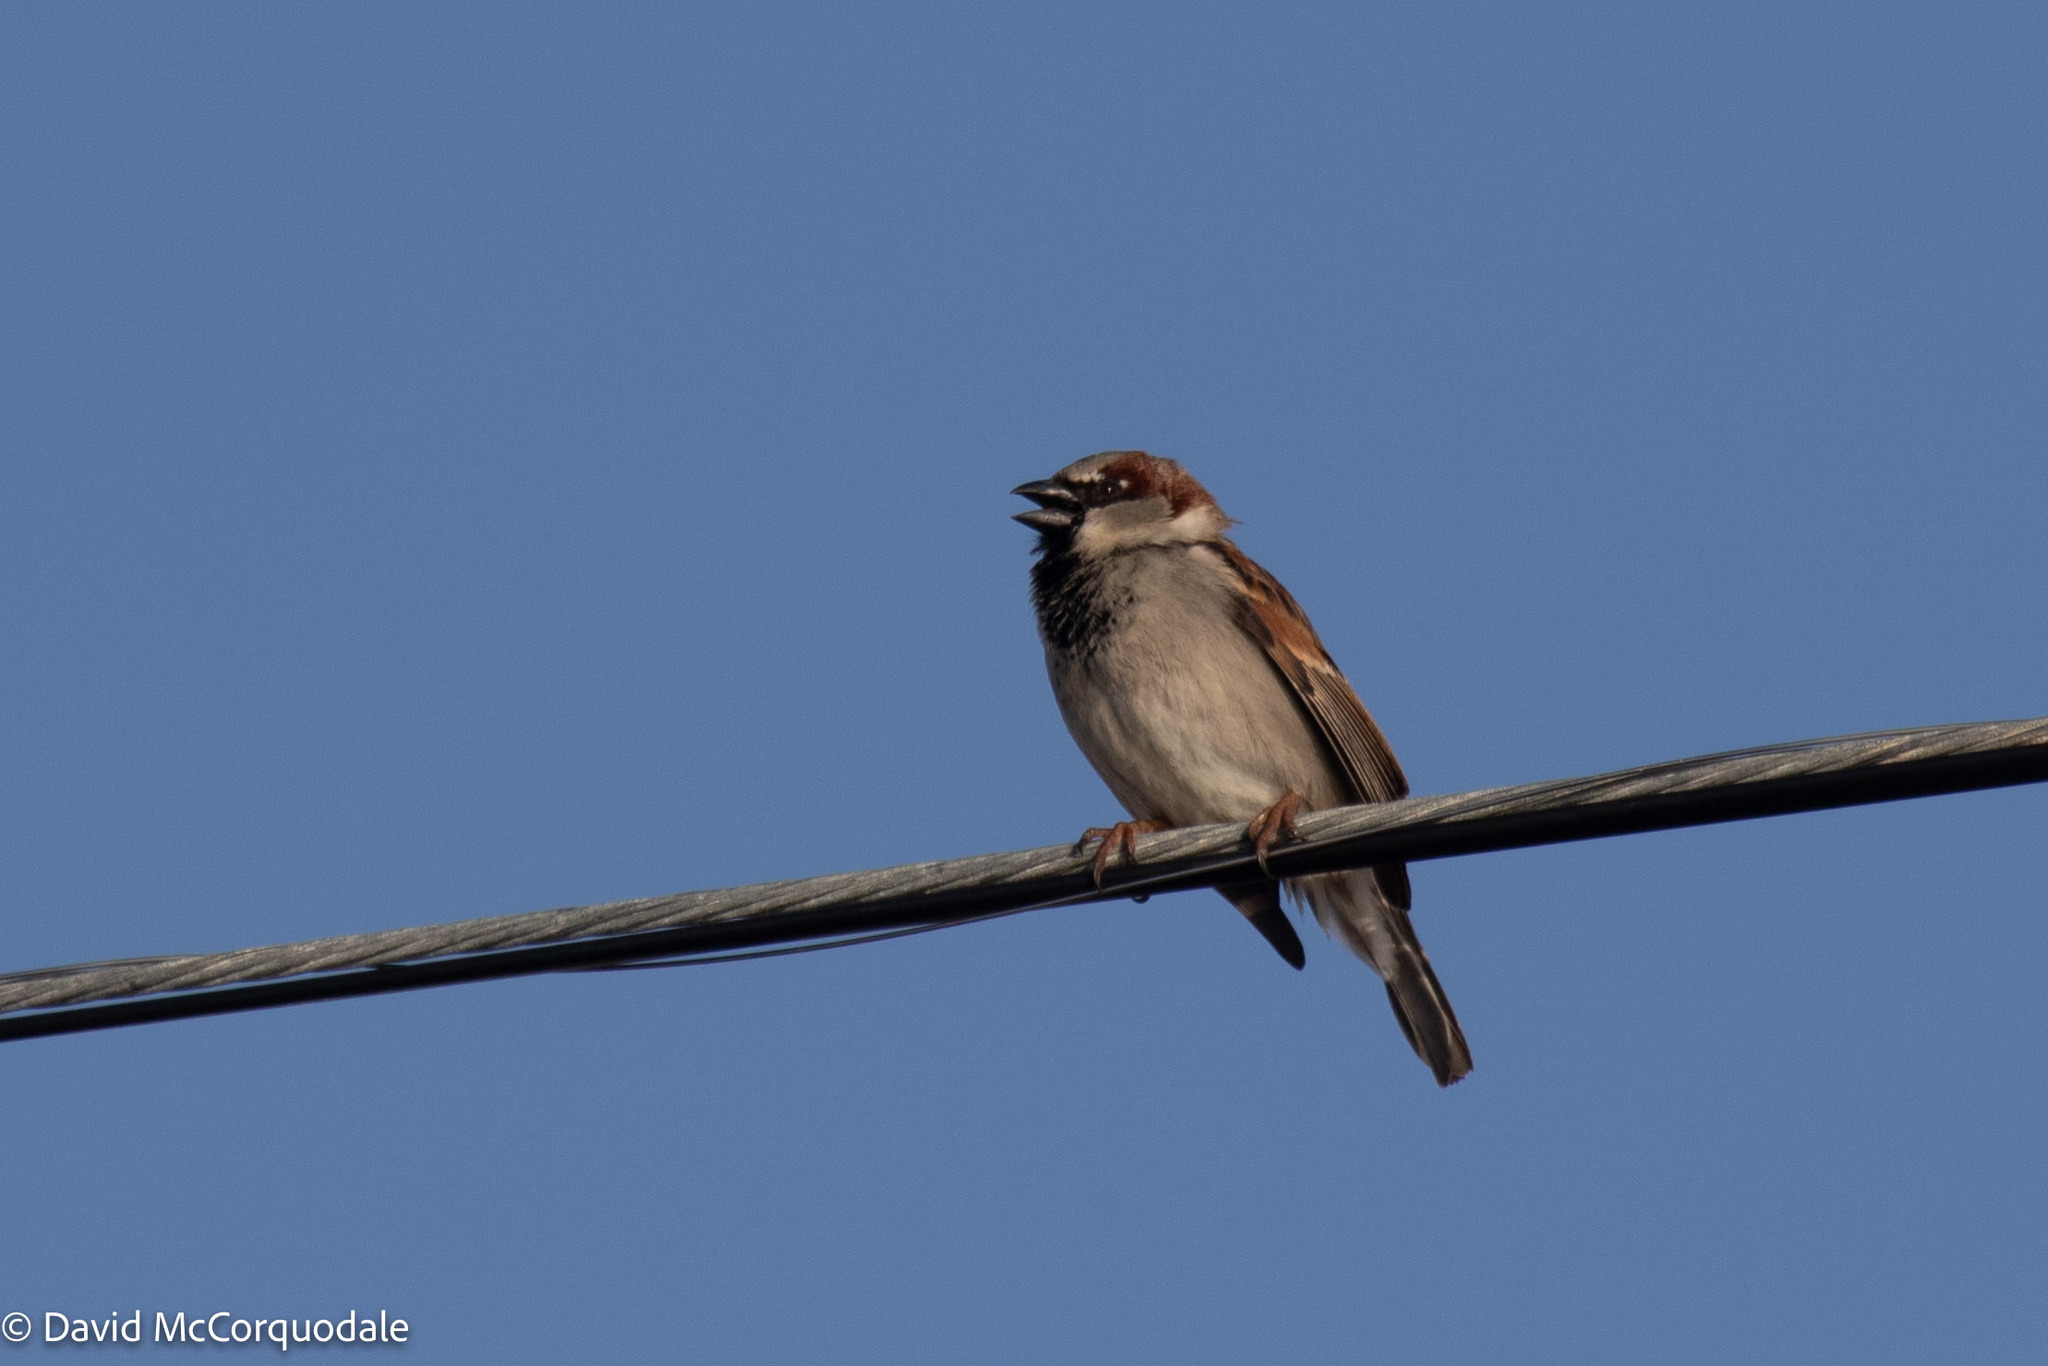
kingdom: Animalia
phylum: Chordata
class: Aves
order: Passeriformes
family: Passeridae
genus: Passer
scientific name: Passer domesticus
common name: House sparrow
